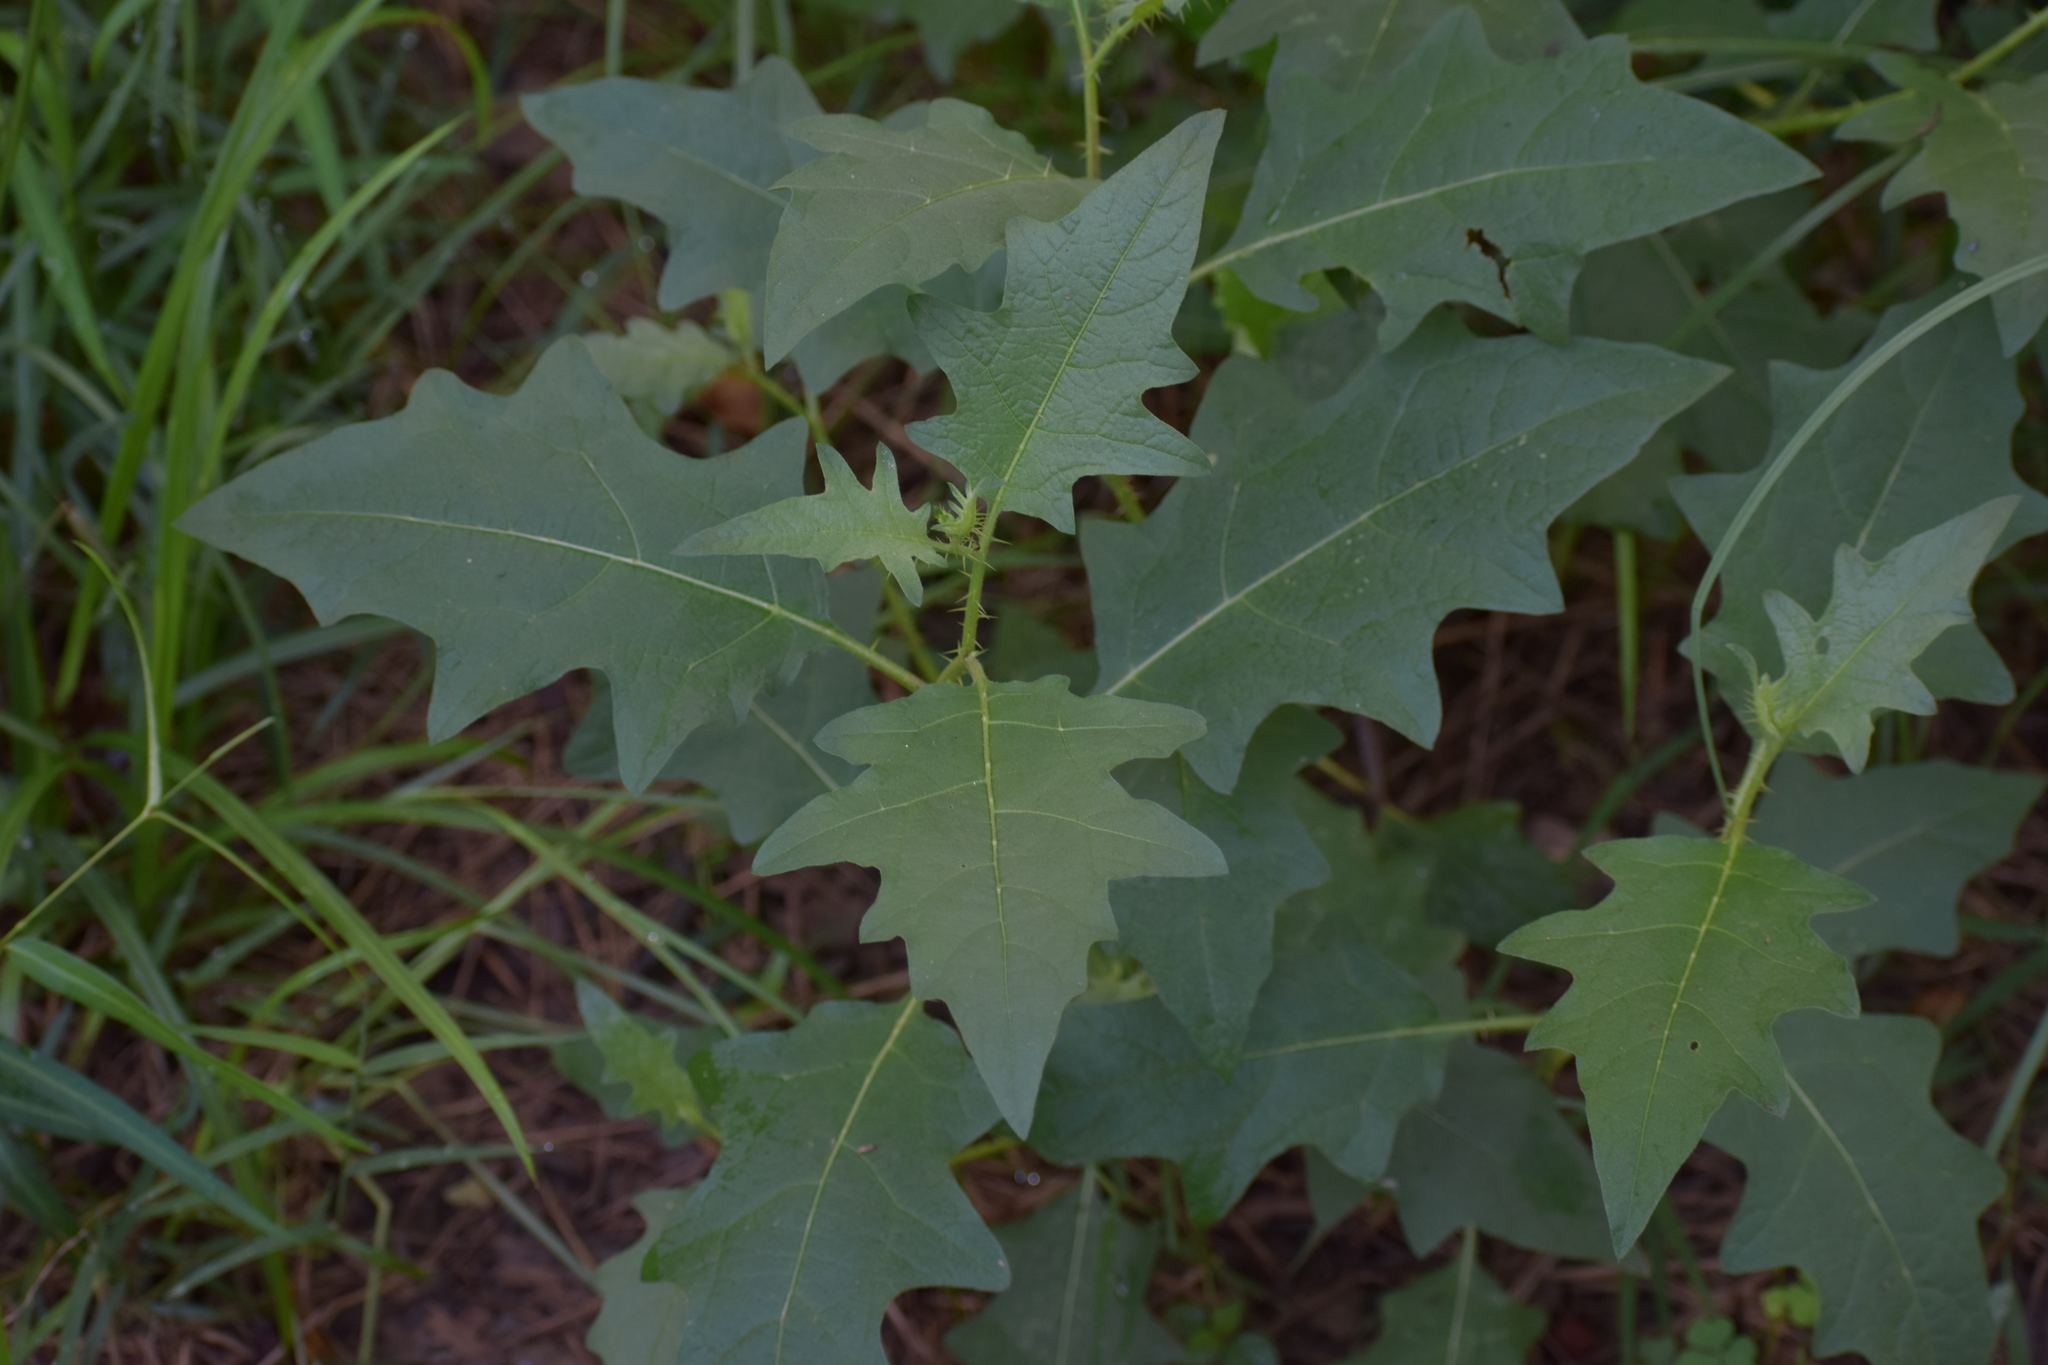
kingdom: Plantae
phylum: Tracheophyta
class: Magnoliopsida
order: Solanales
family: Solanaceae
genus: Solanum
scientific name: Solanum carolinense
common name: Horse-nettle
